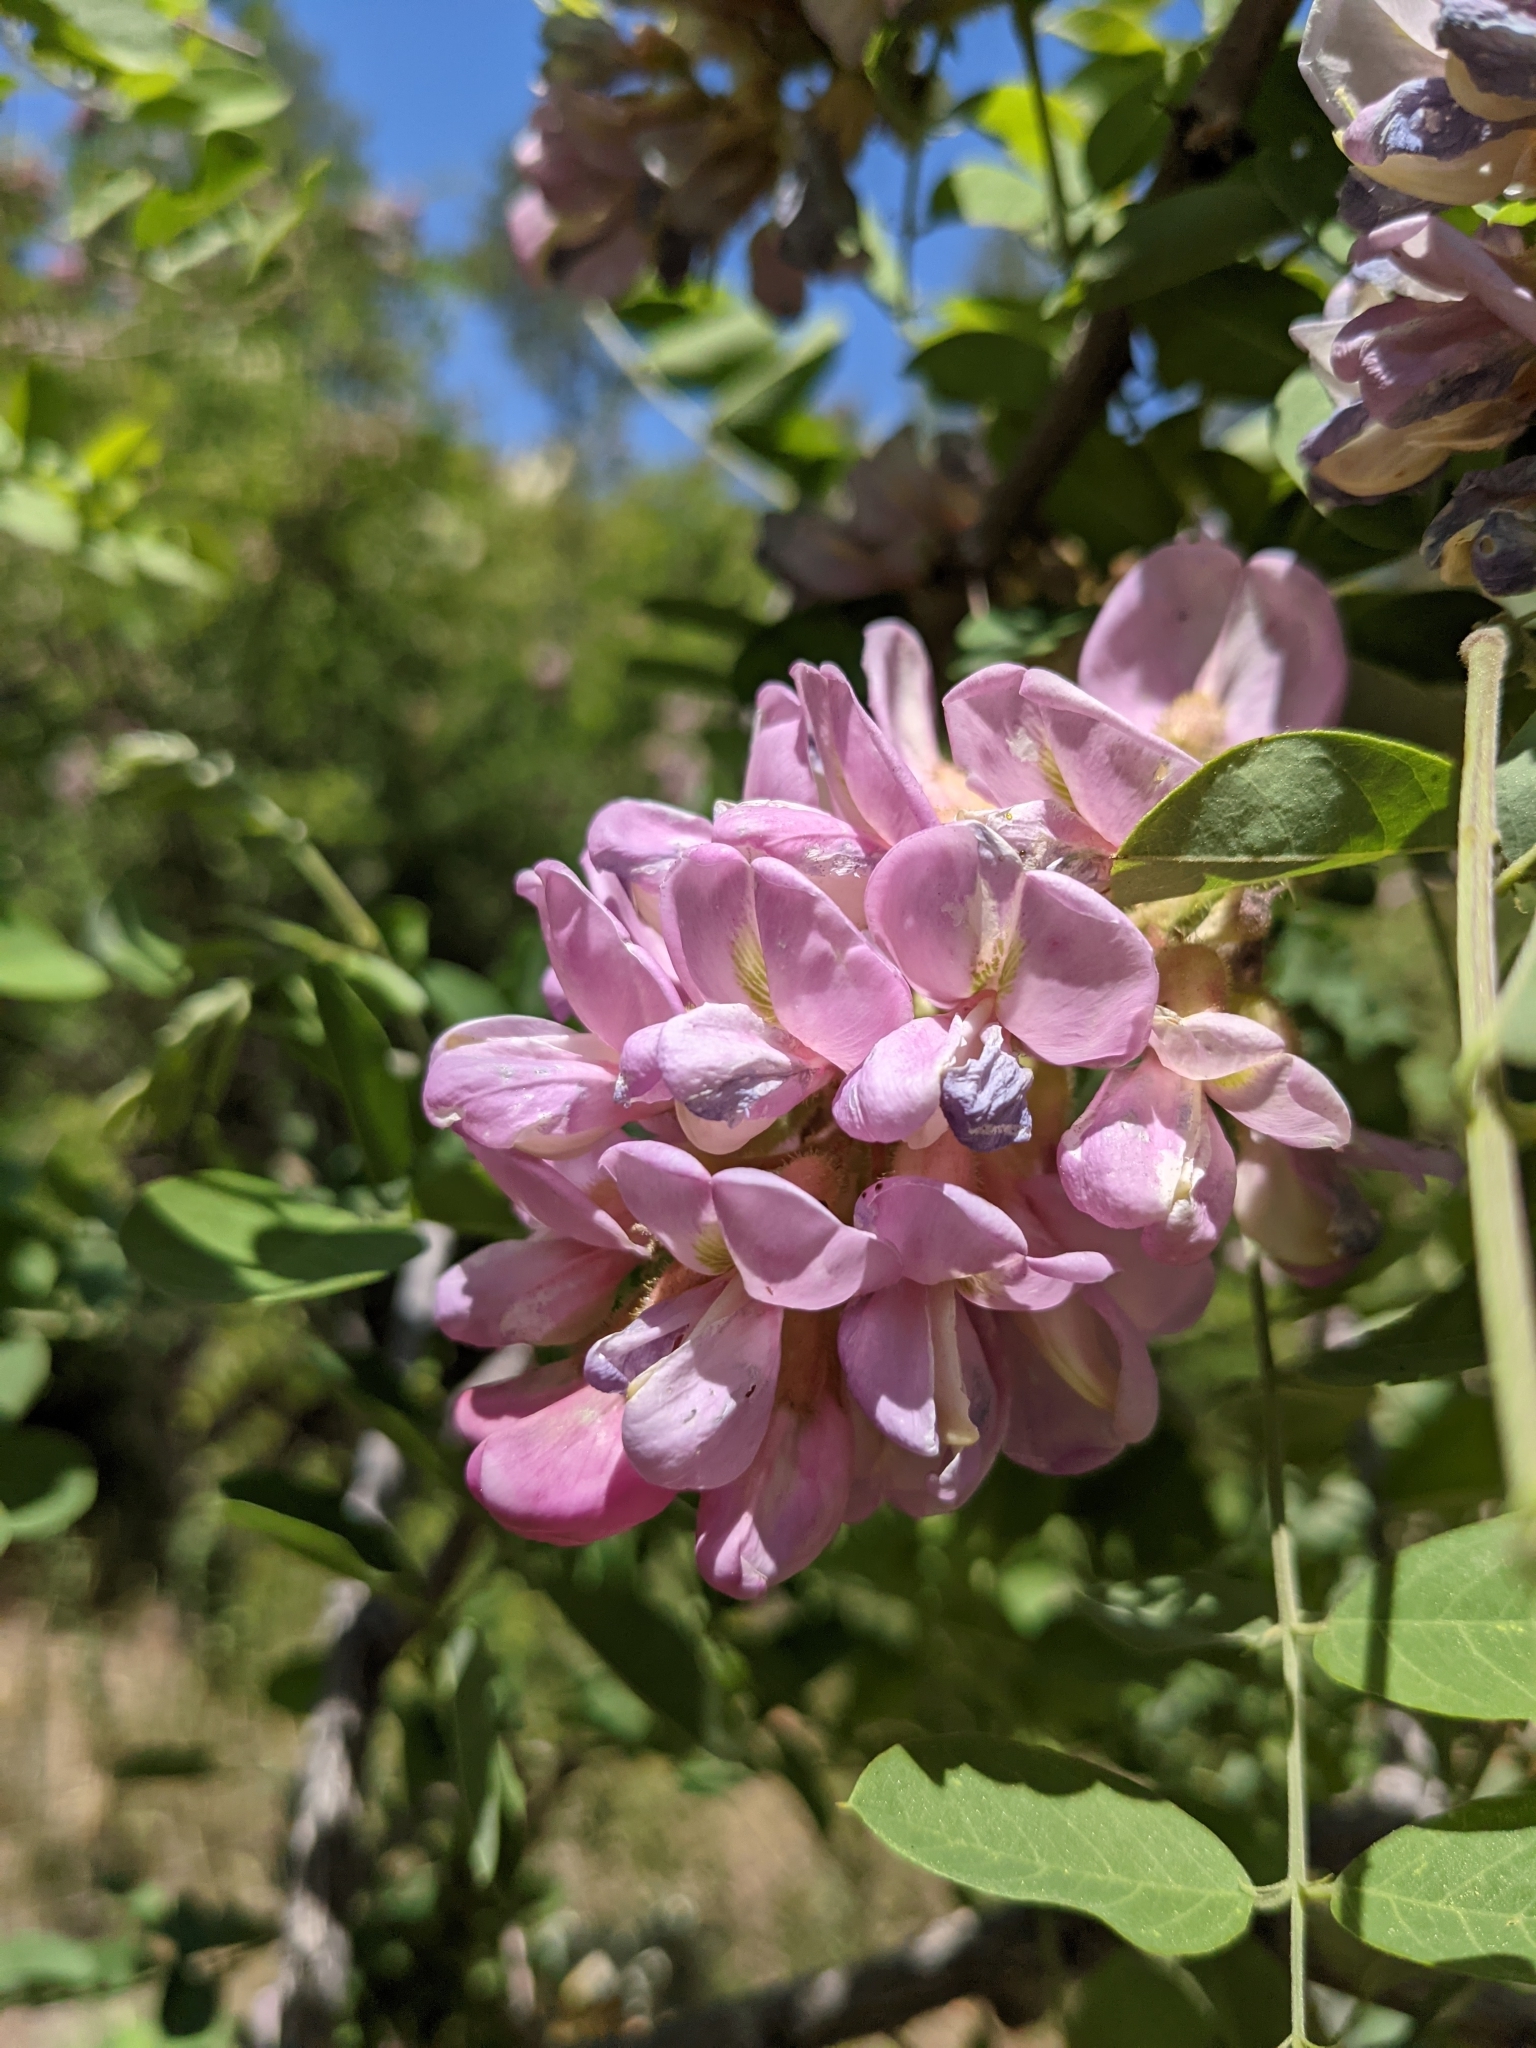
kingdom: Plantae
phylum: Tracheophyta
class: Magnoliopsida
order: Fabales
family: Fabaceae
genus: Robinia
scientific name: Robinia neomexicana
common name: New mexico locust
